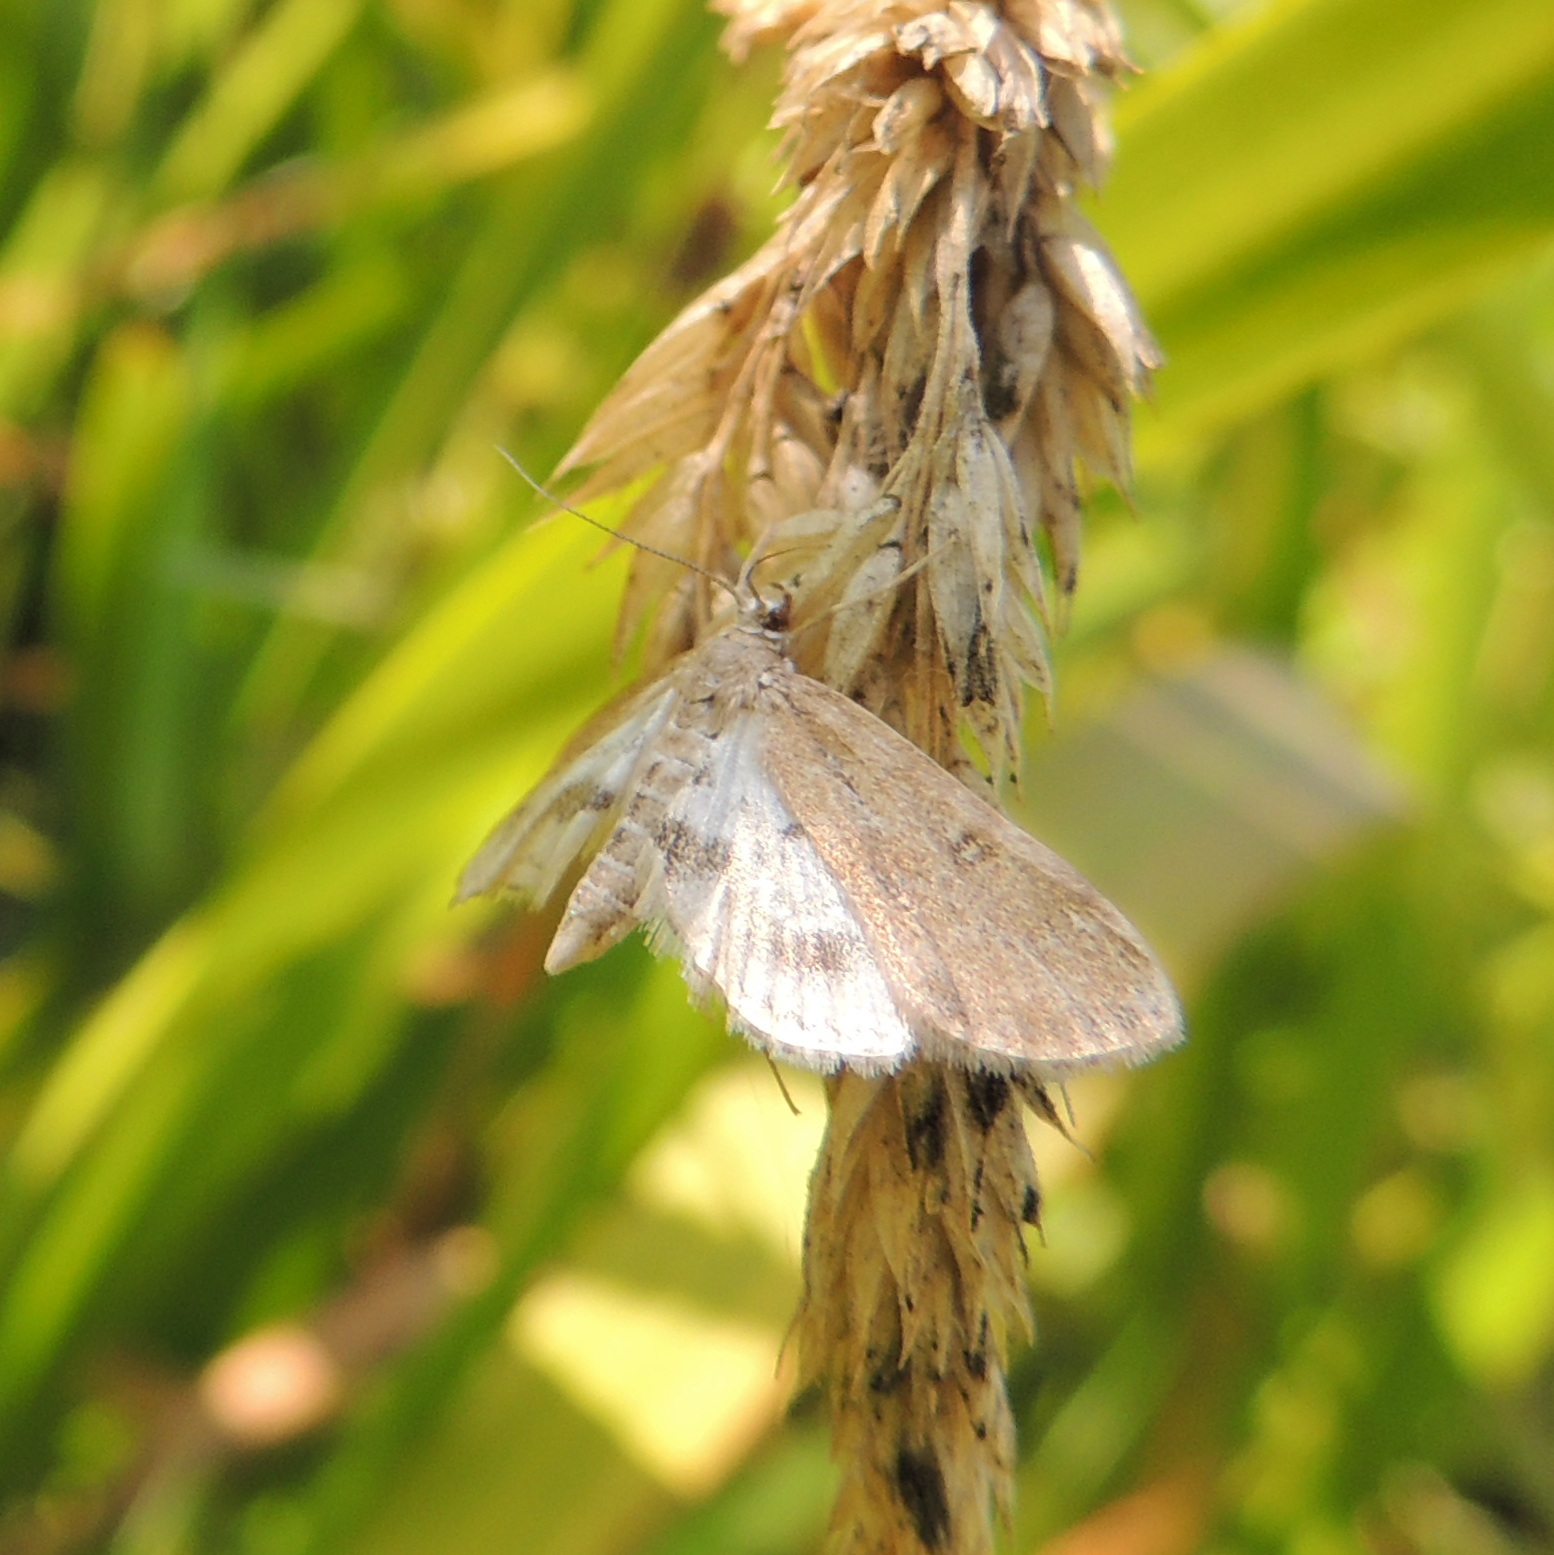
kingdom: Animalia
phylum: Arthropoda
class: Insecta
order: Lepidoptera
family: Crambidae
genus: Parapoynx
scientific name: Parapoynx stratiotata
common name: Ringed china-mark
